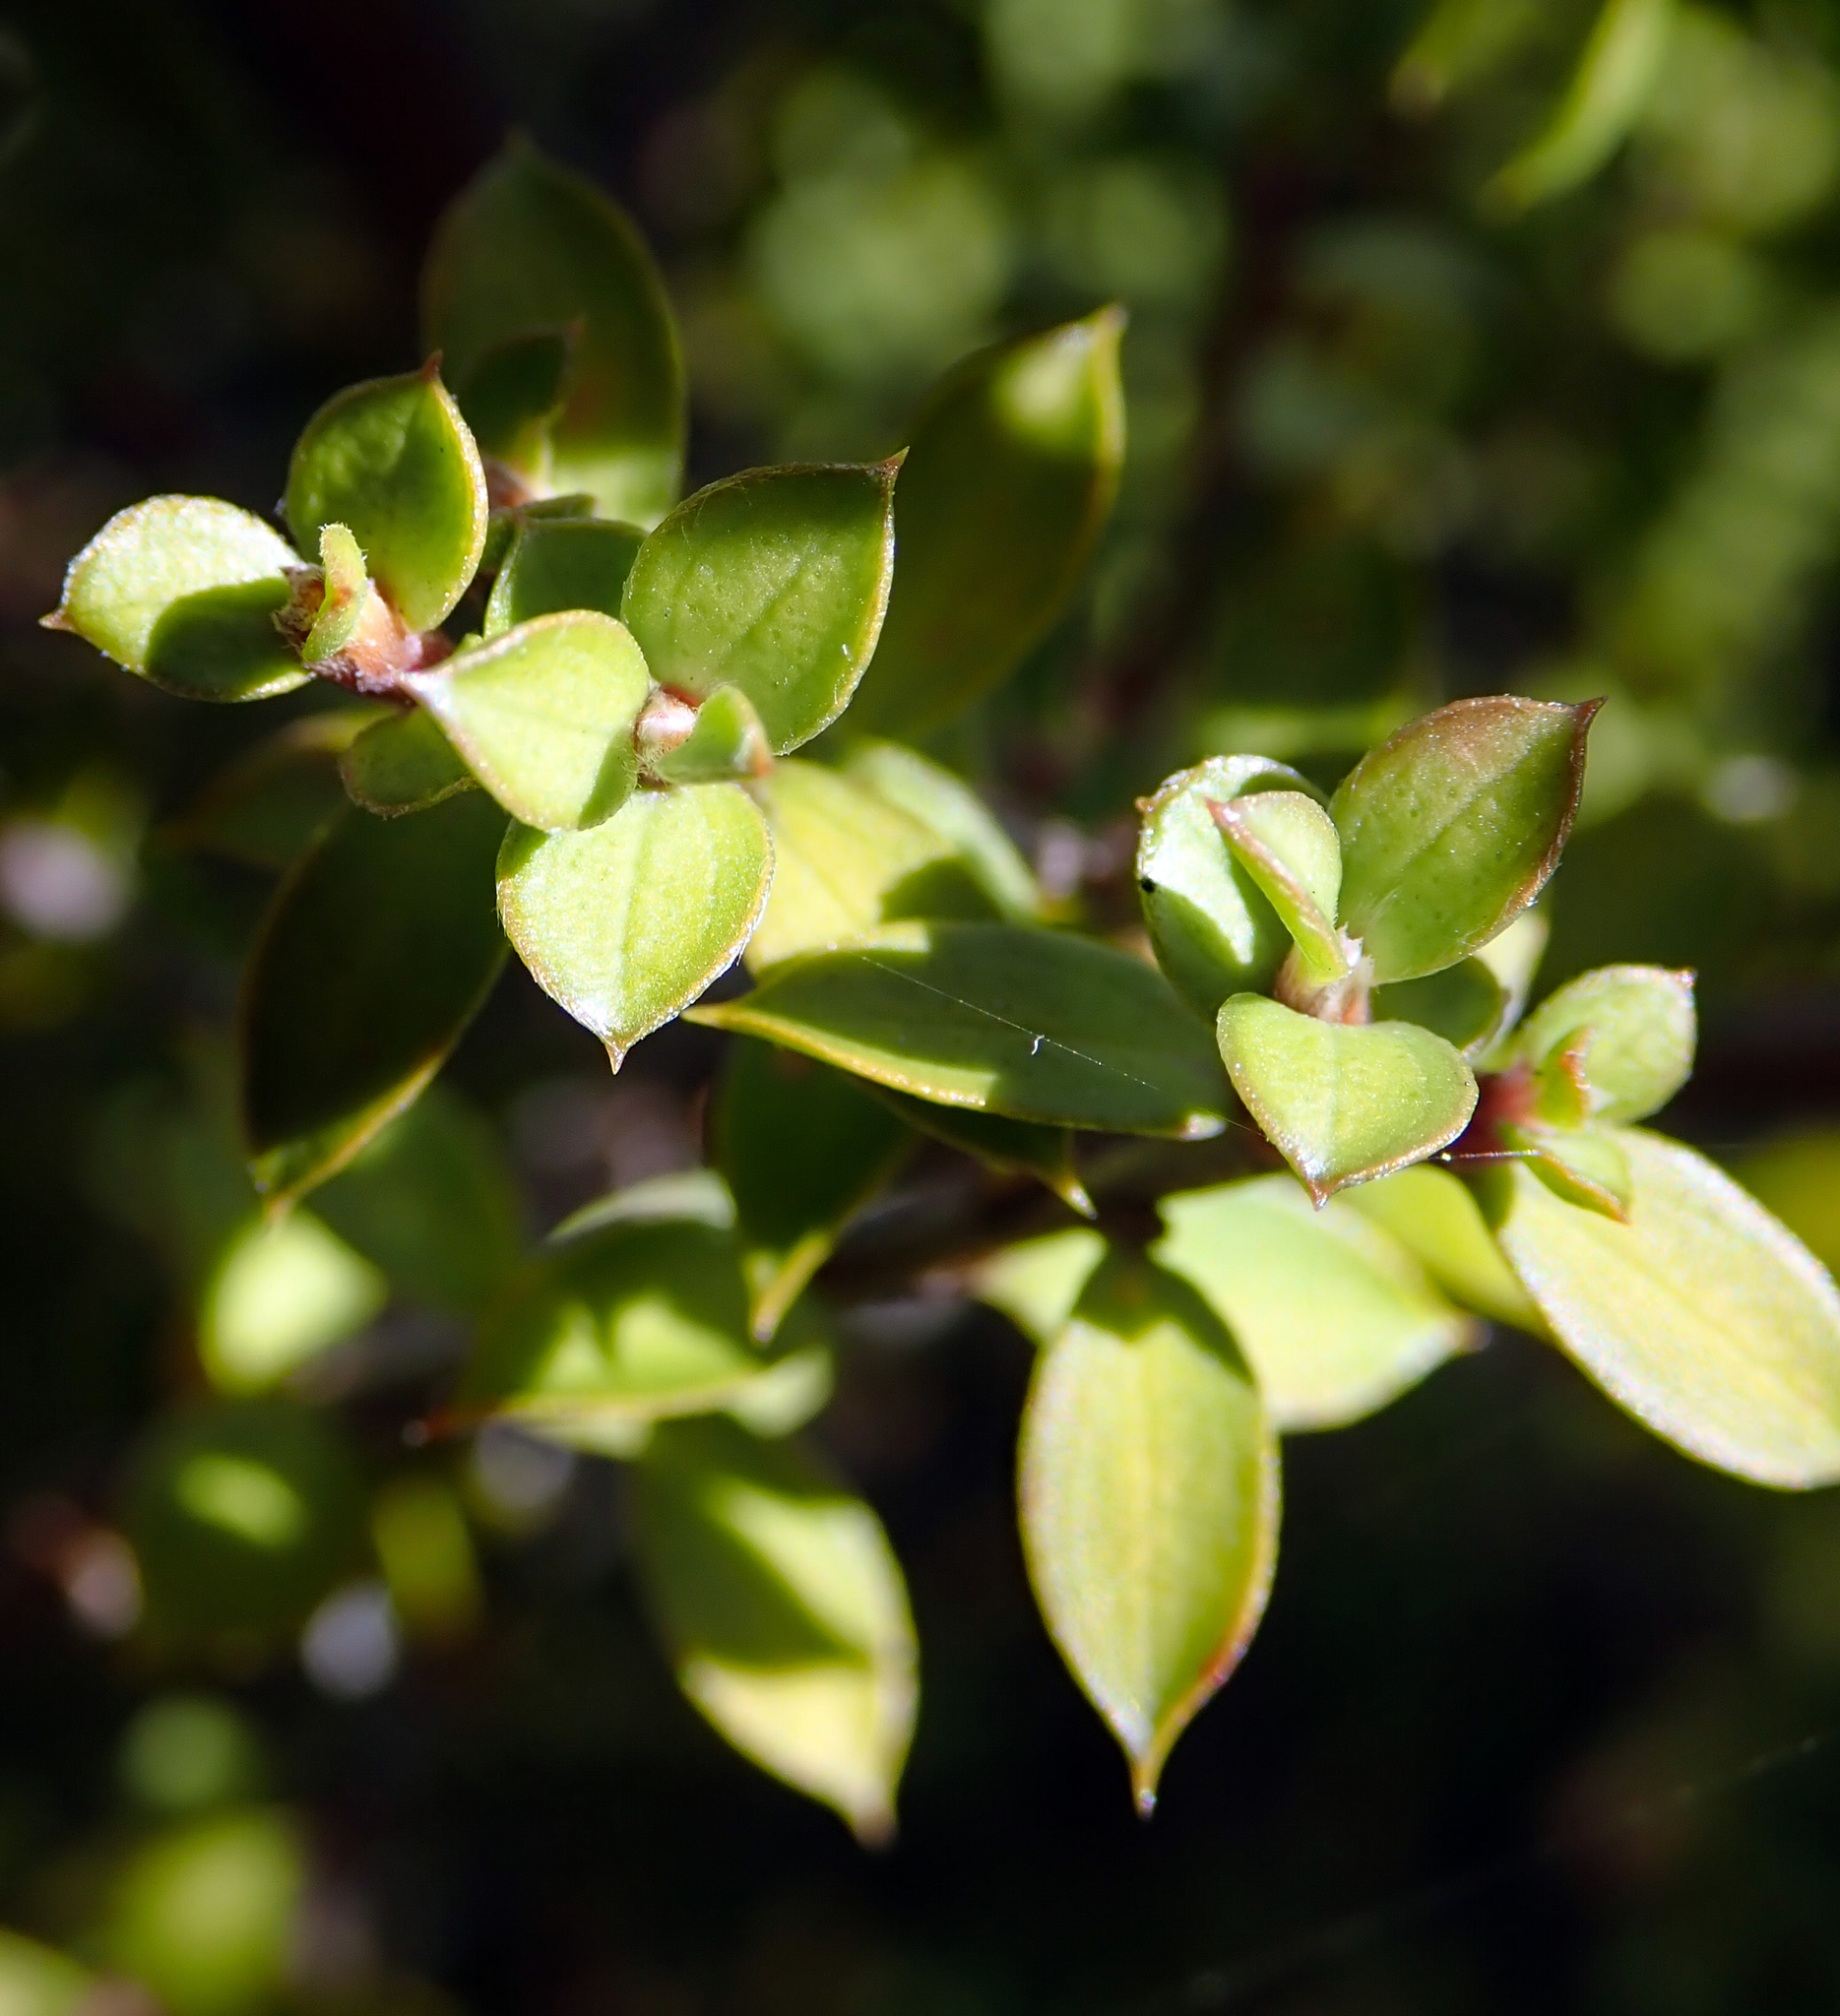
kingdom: Plantae
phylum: Tracheophyta
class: Magnoliopsida
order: Myrtales
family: Myrtaceae
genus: Leptospermum
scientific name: Leptospermum scoparium
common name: Broom tea-tree
